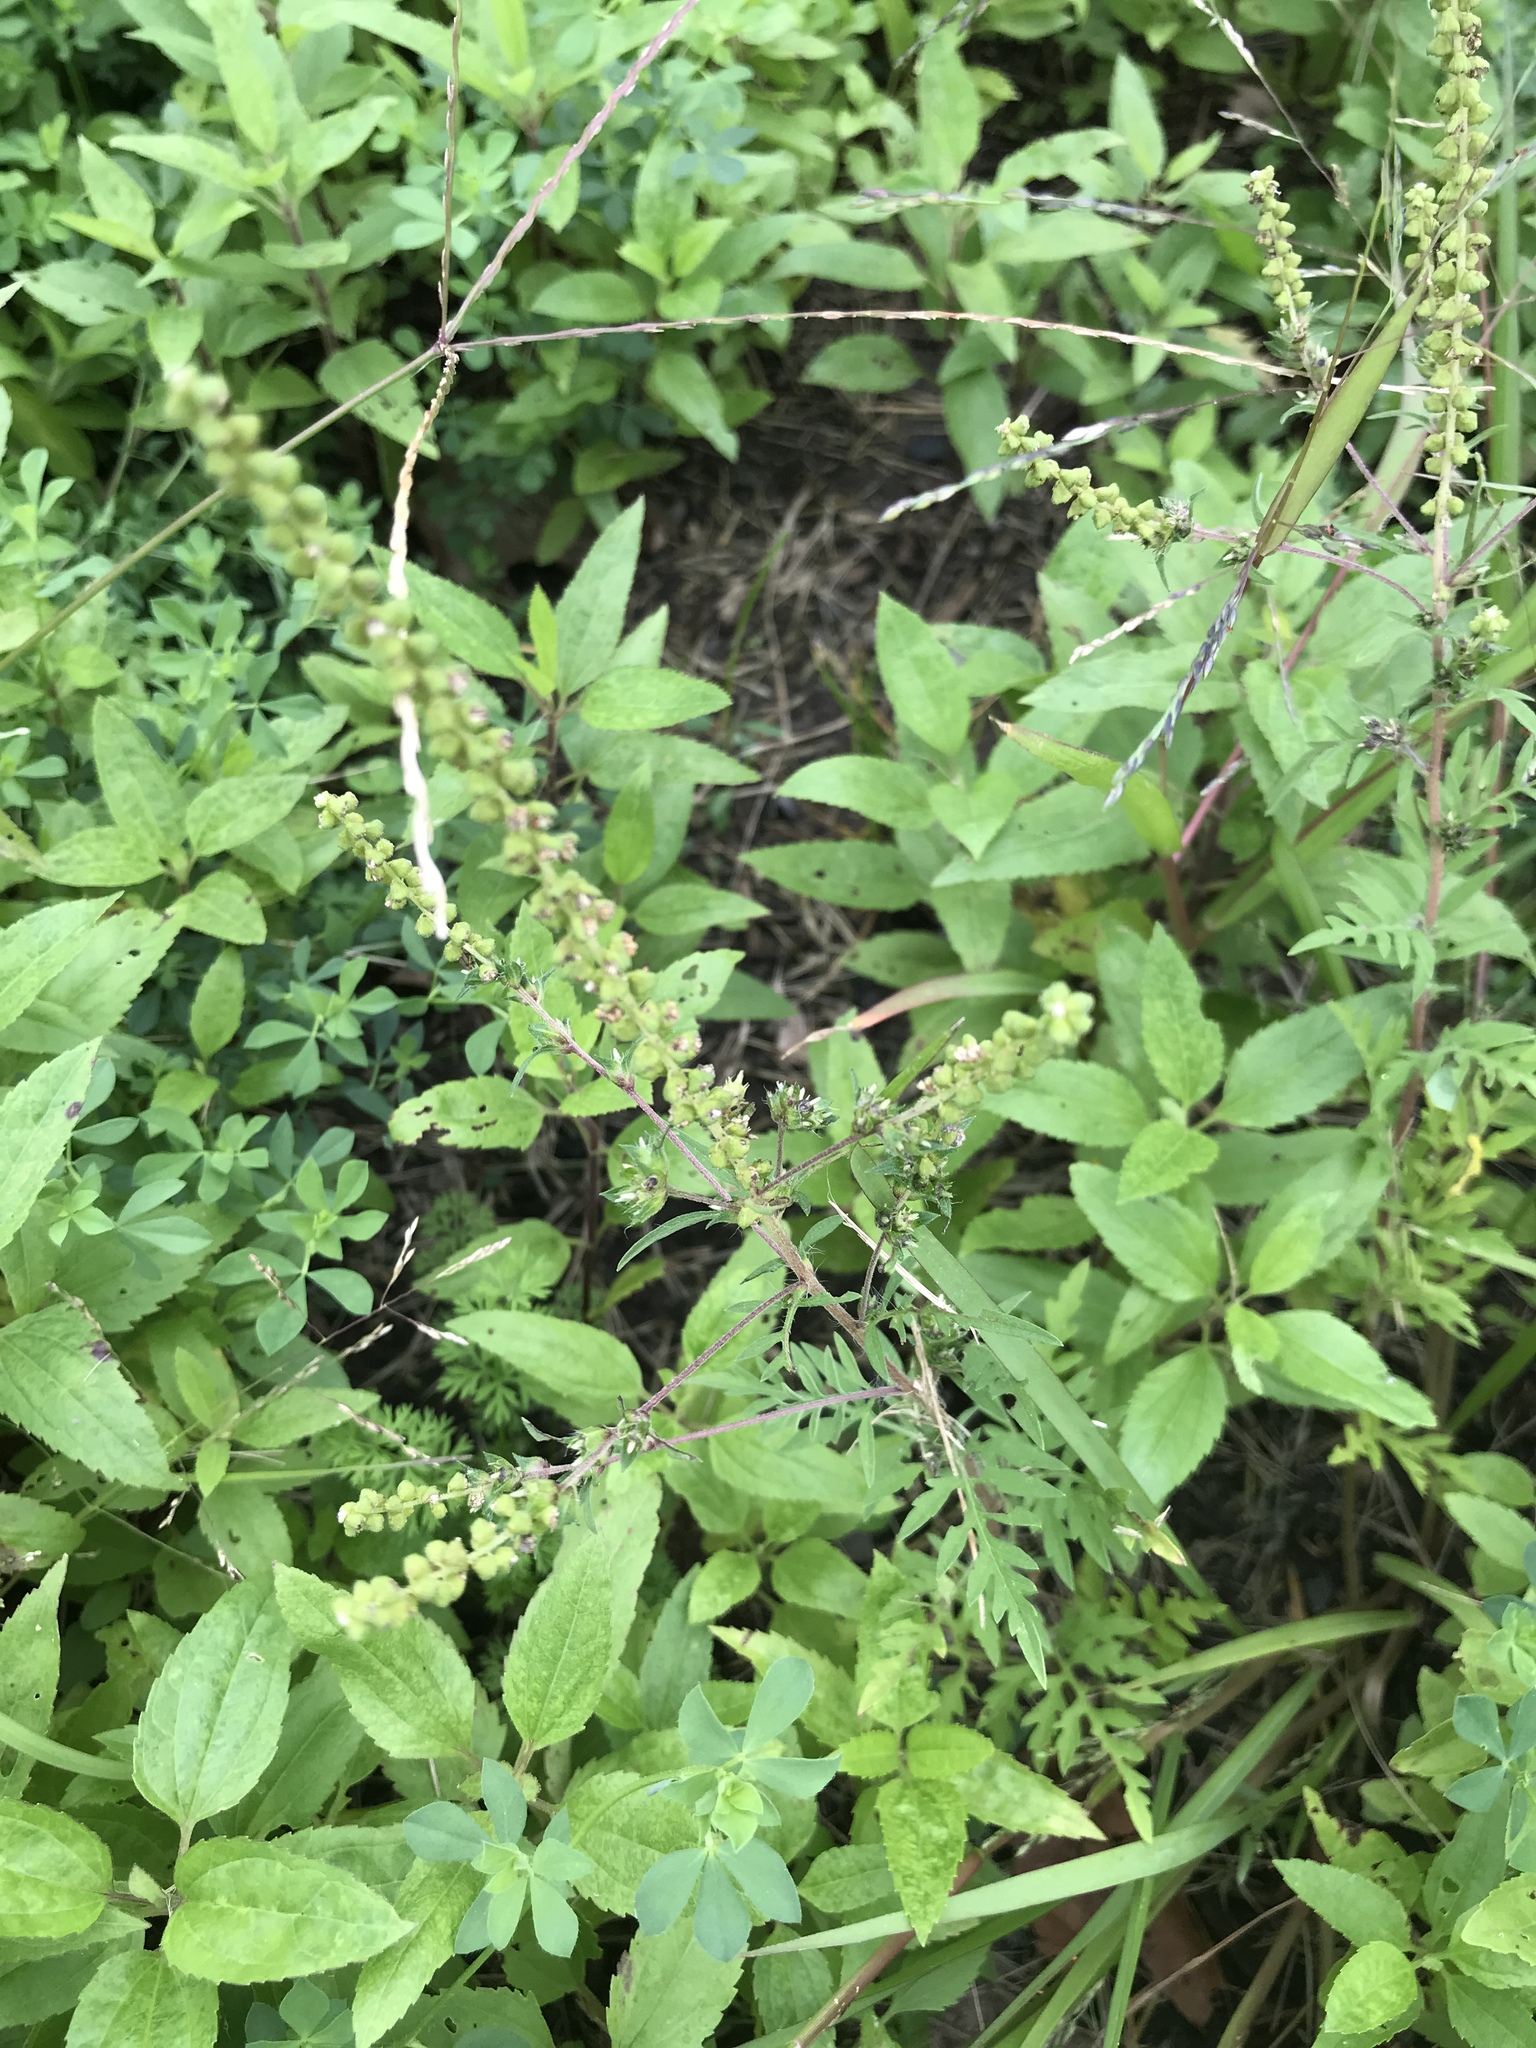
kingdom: Plantae
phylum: Tracheophyta
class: Magnoliopsida
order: Asterales
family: Asteraceae
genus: Ambrosia
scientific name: Ambrosia artemisiifolia
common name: Annual ragweed
